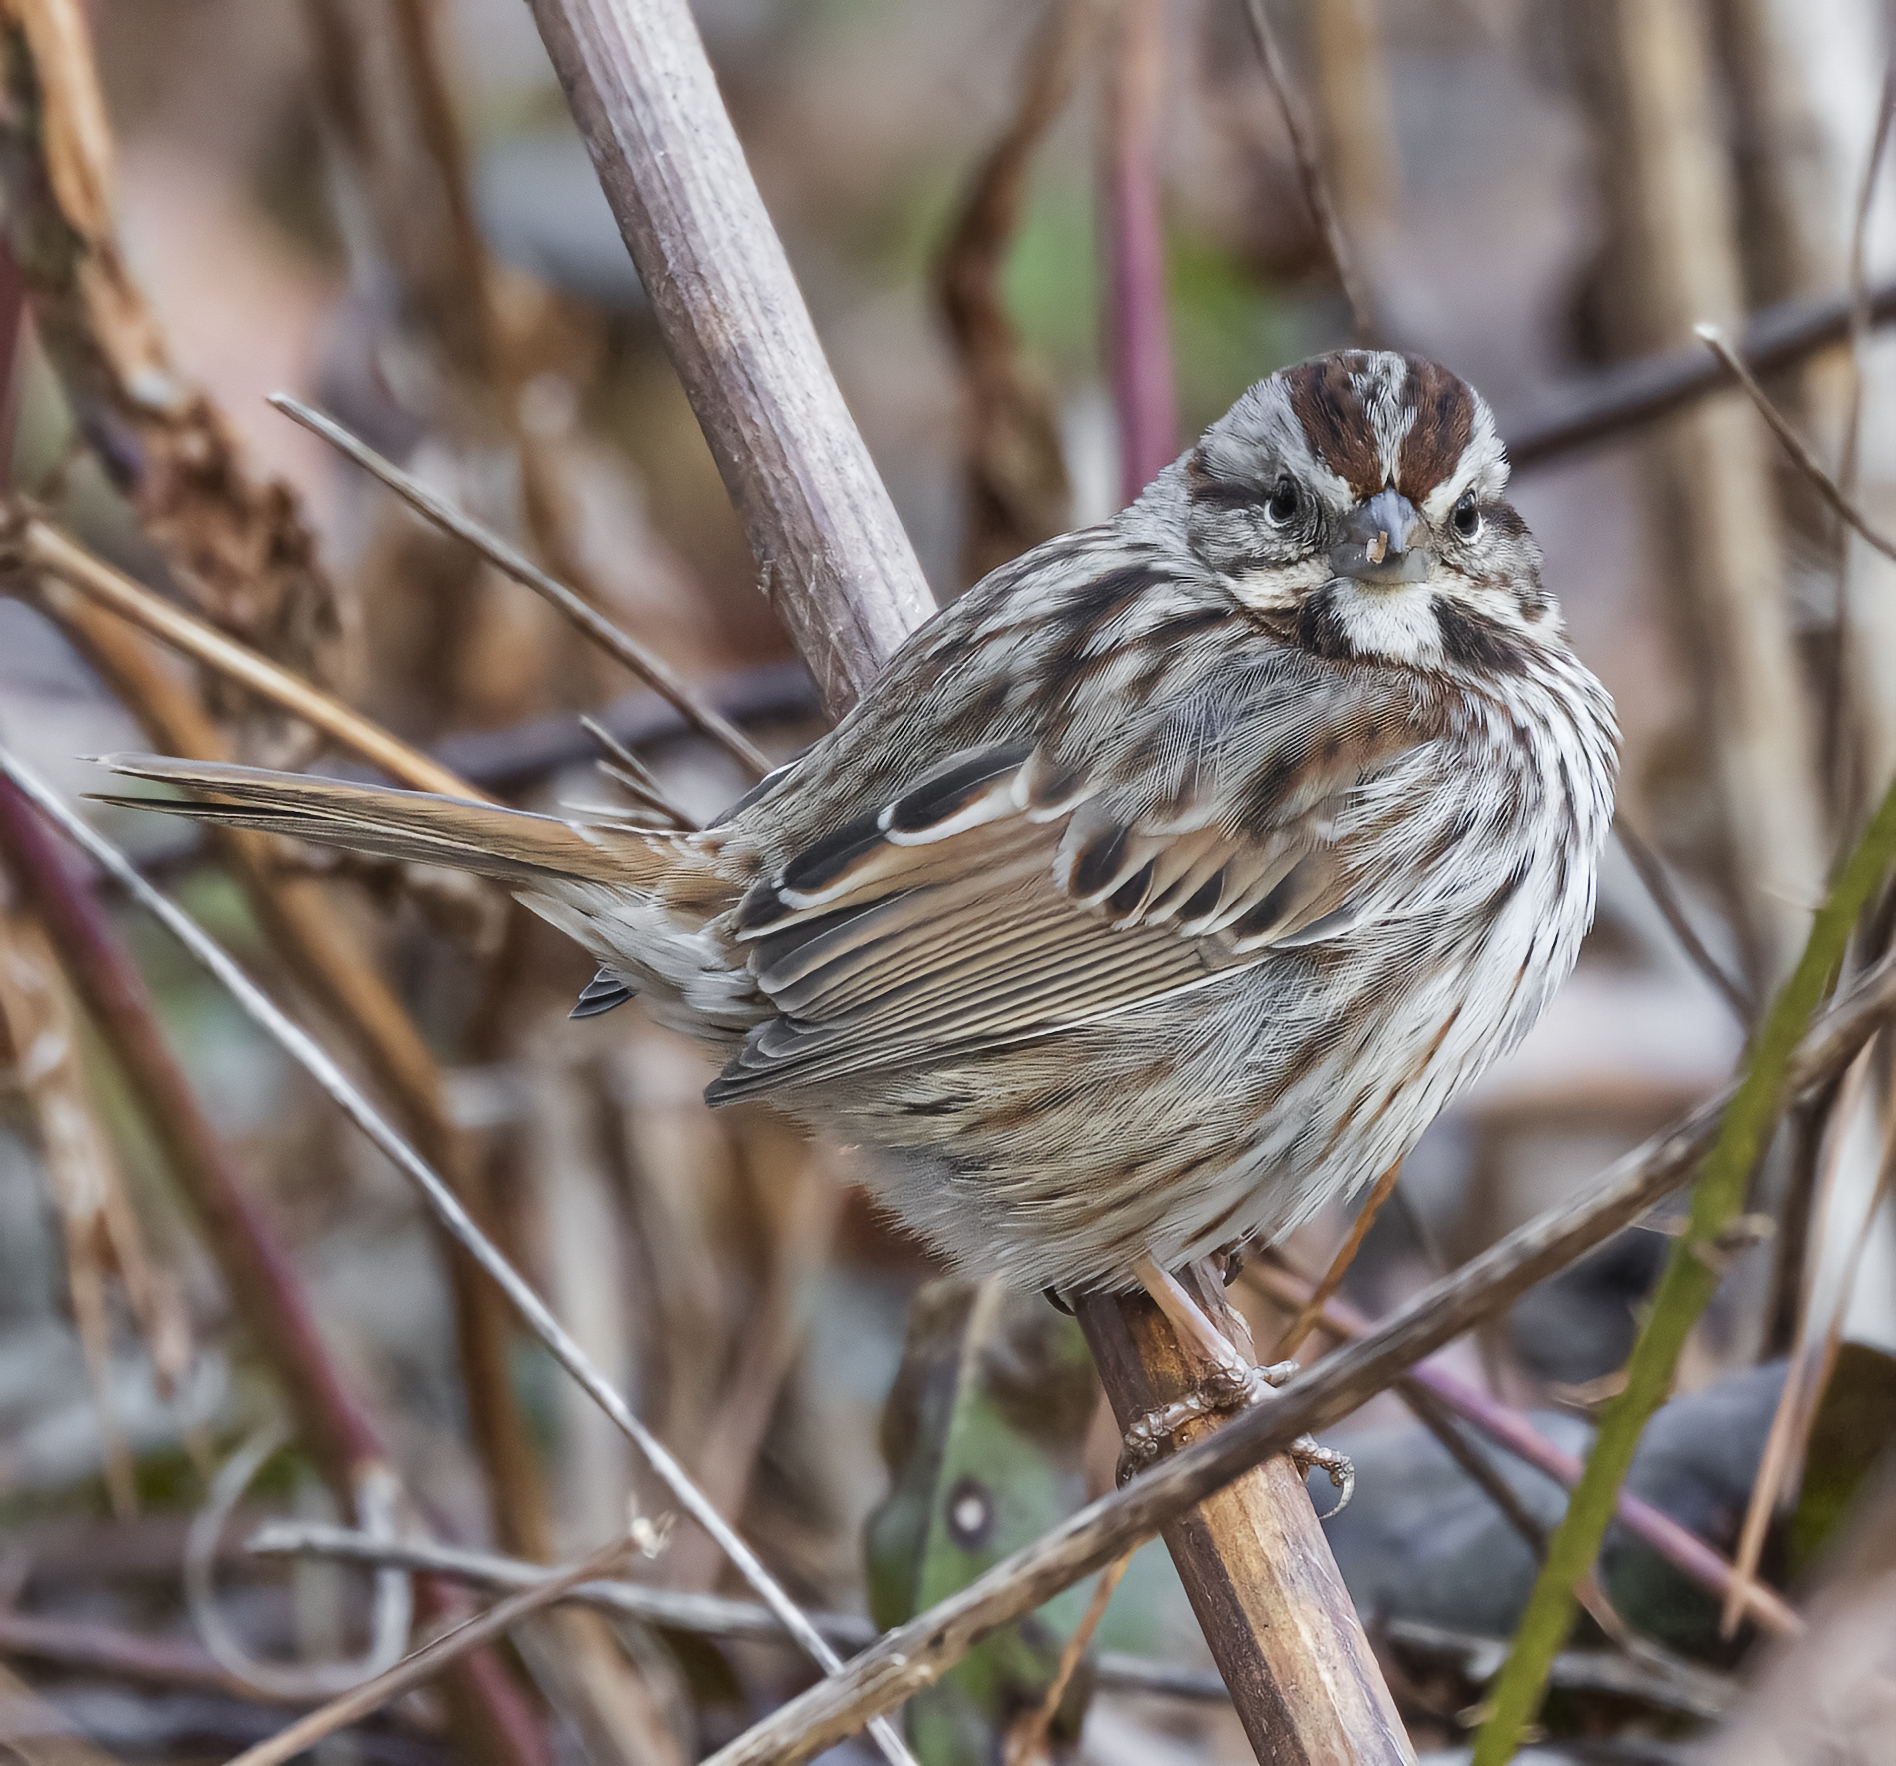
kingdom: Animalia
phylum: Chordata
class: Aves
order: Passeriformes
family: Passerellidae
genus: Melospiza
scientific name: Melospiza melodia
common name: Song sparrow
